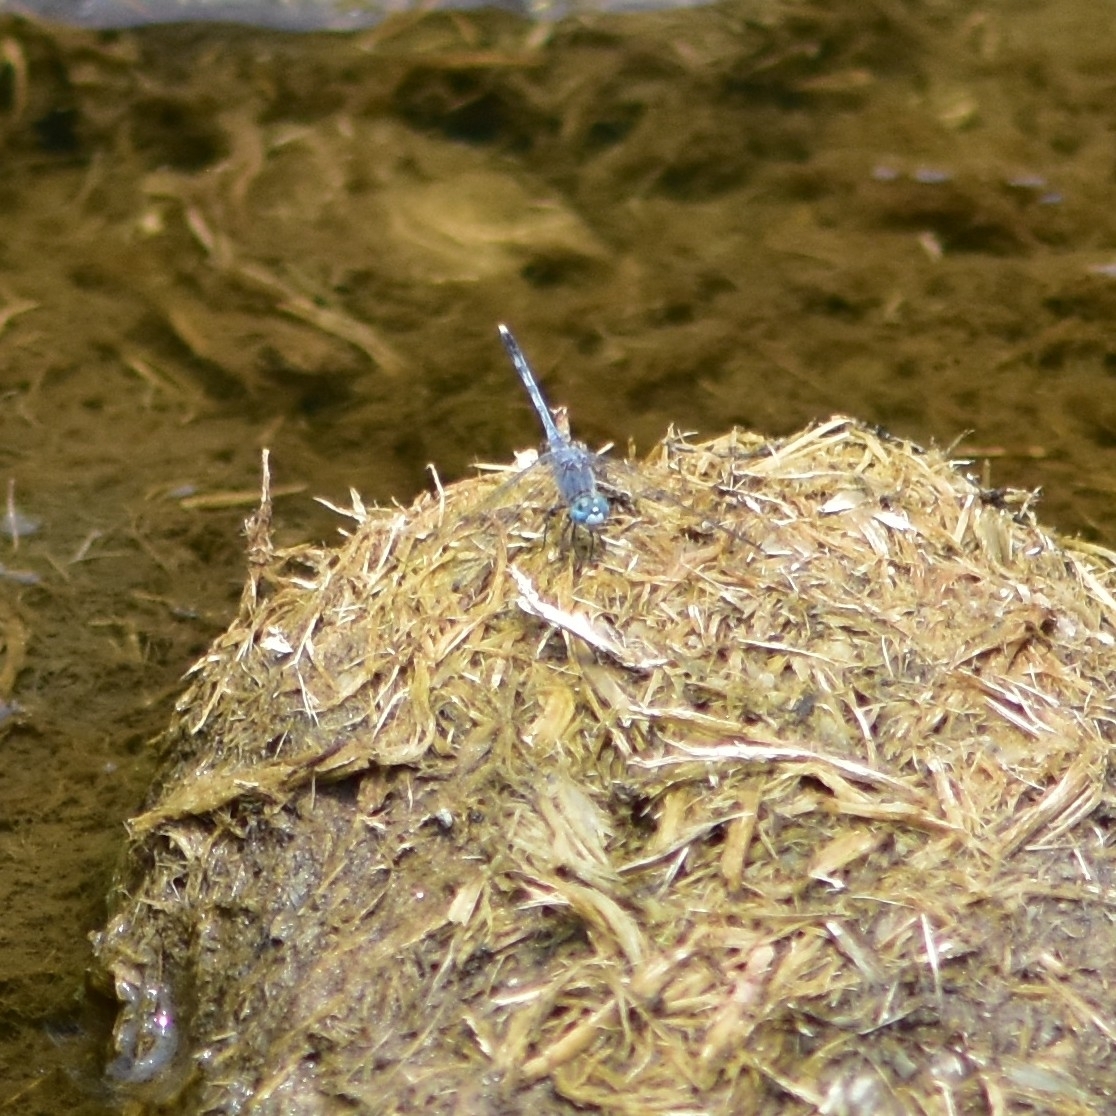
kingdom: Animalia
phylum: Arthropoda
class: Insecta
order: Odonata
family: Libellulidae
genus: Diplacodes
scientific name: Diplacodes trivialis
